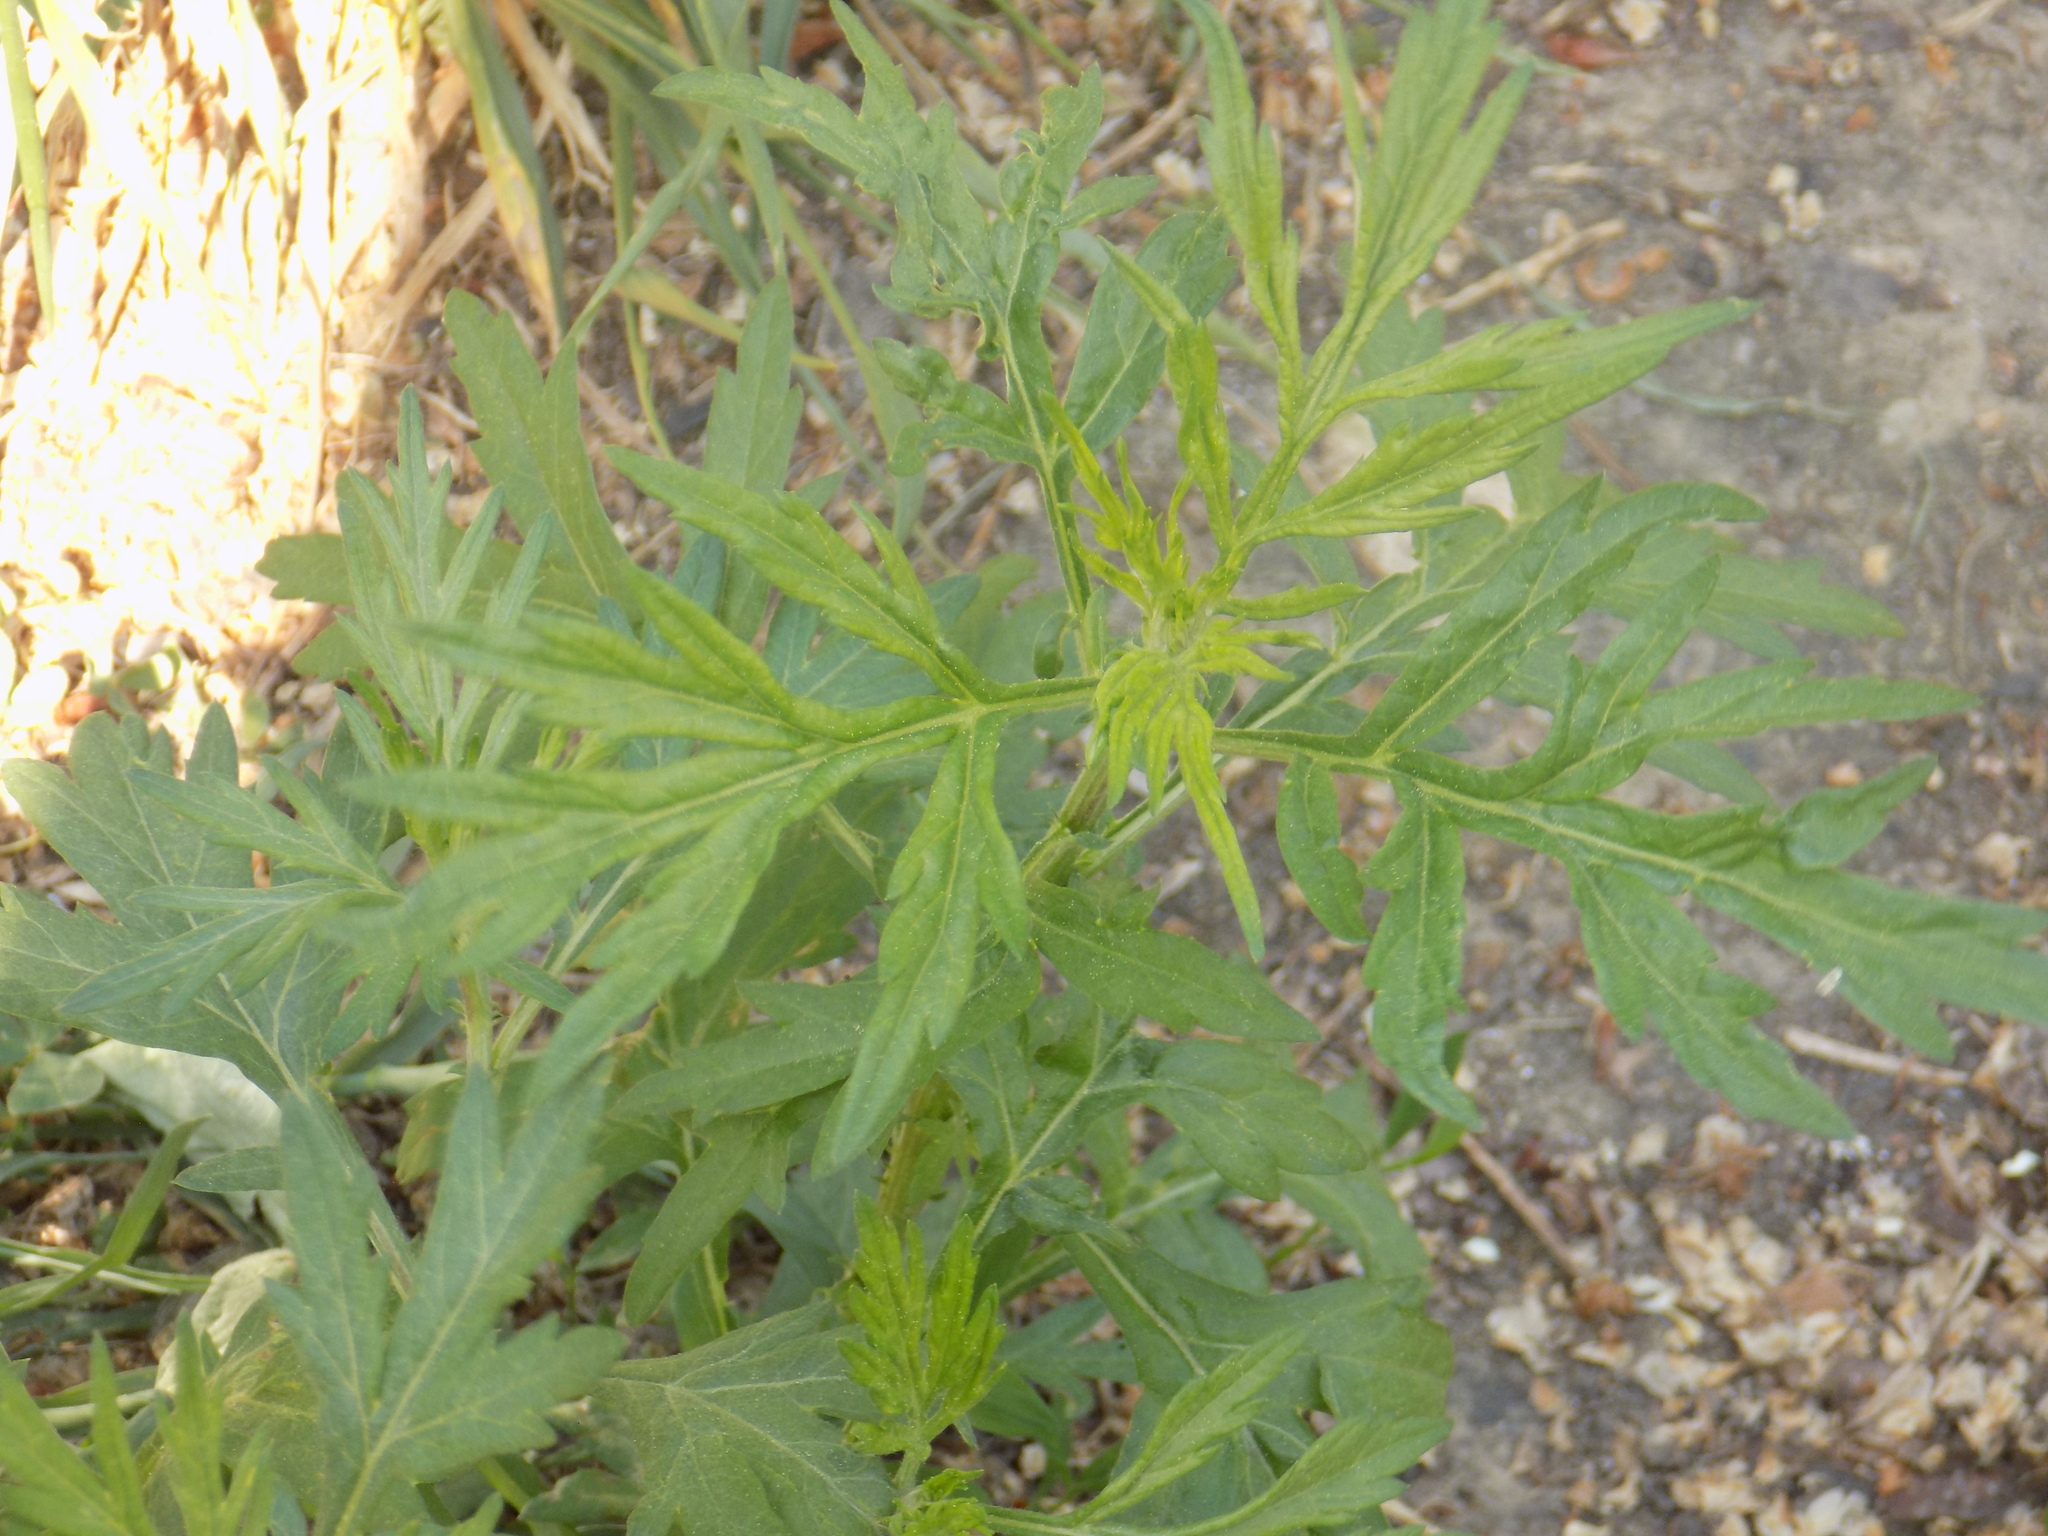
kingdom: Plantae
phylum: Tracheophyta
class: Magnoliopsida
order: Asterales
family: Asteraceae
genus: Artemisia
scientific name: Artemisia vulgaris
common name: Mugwort
